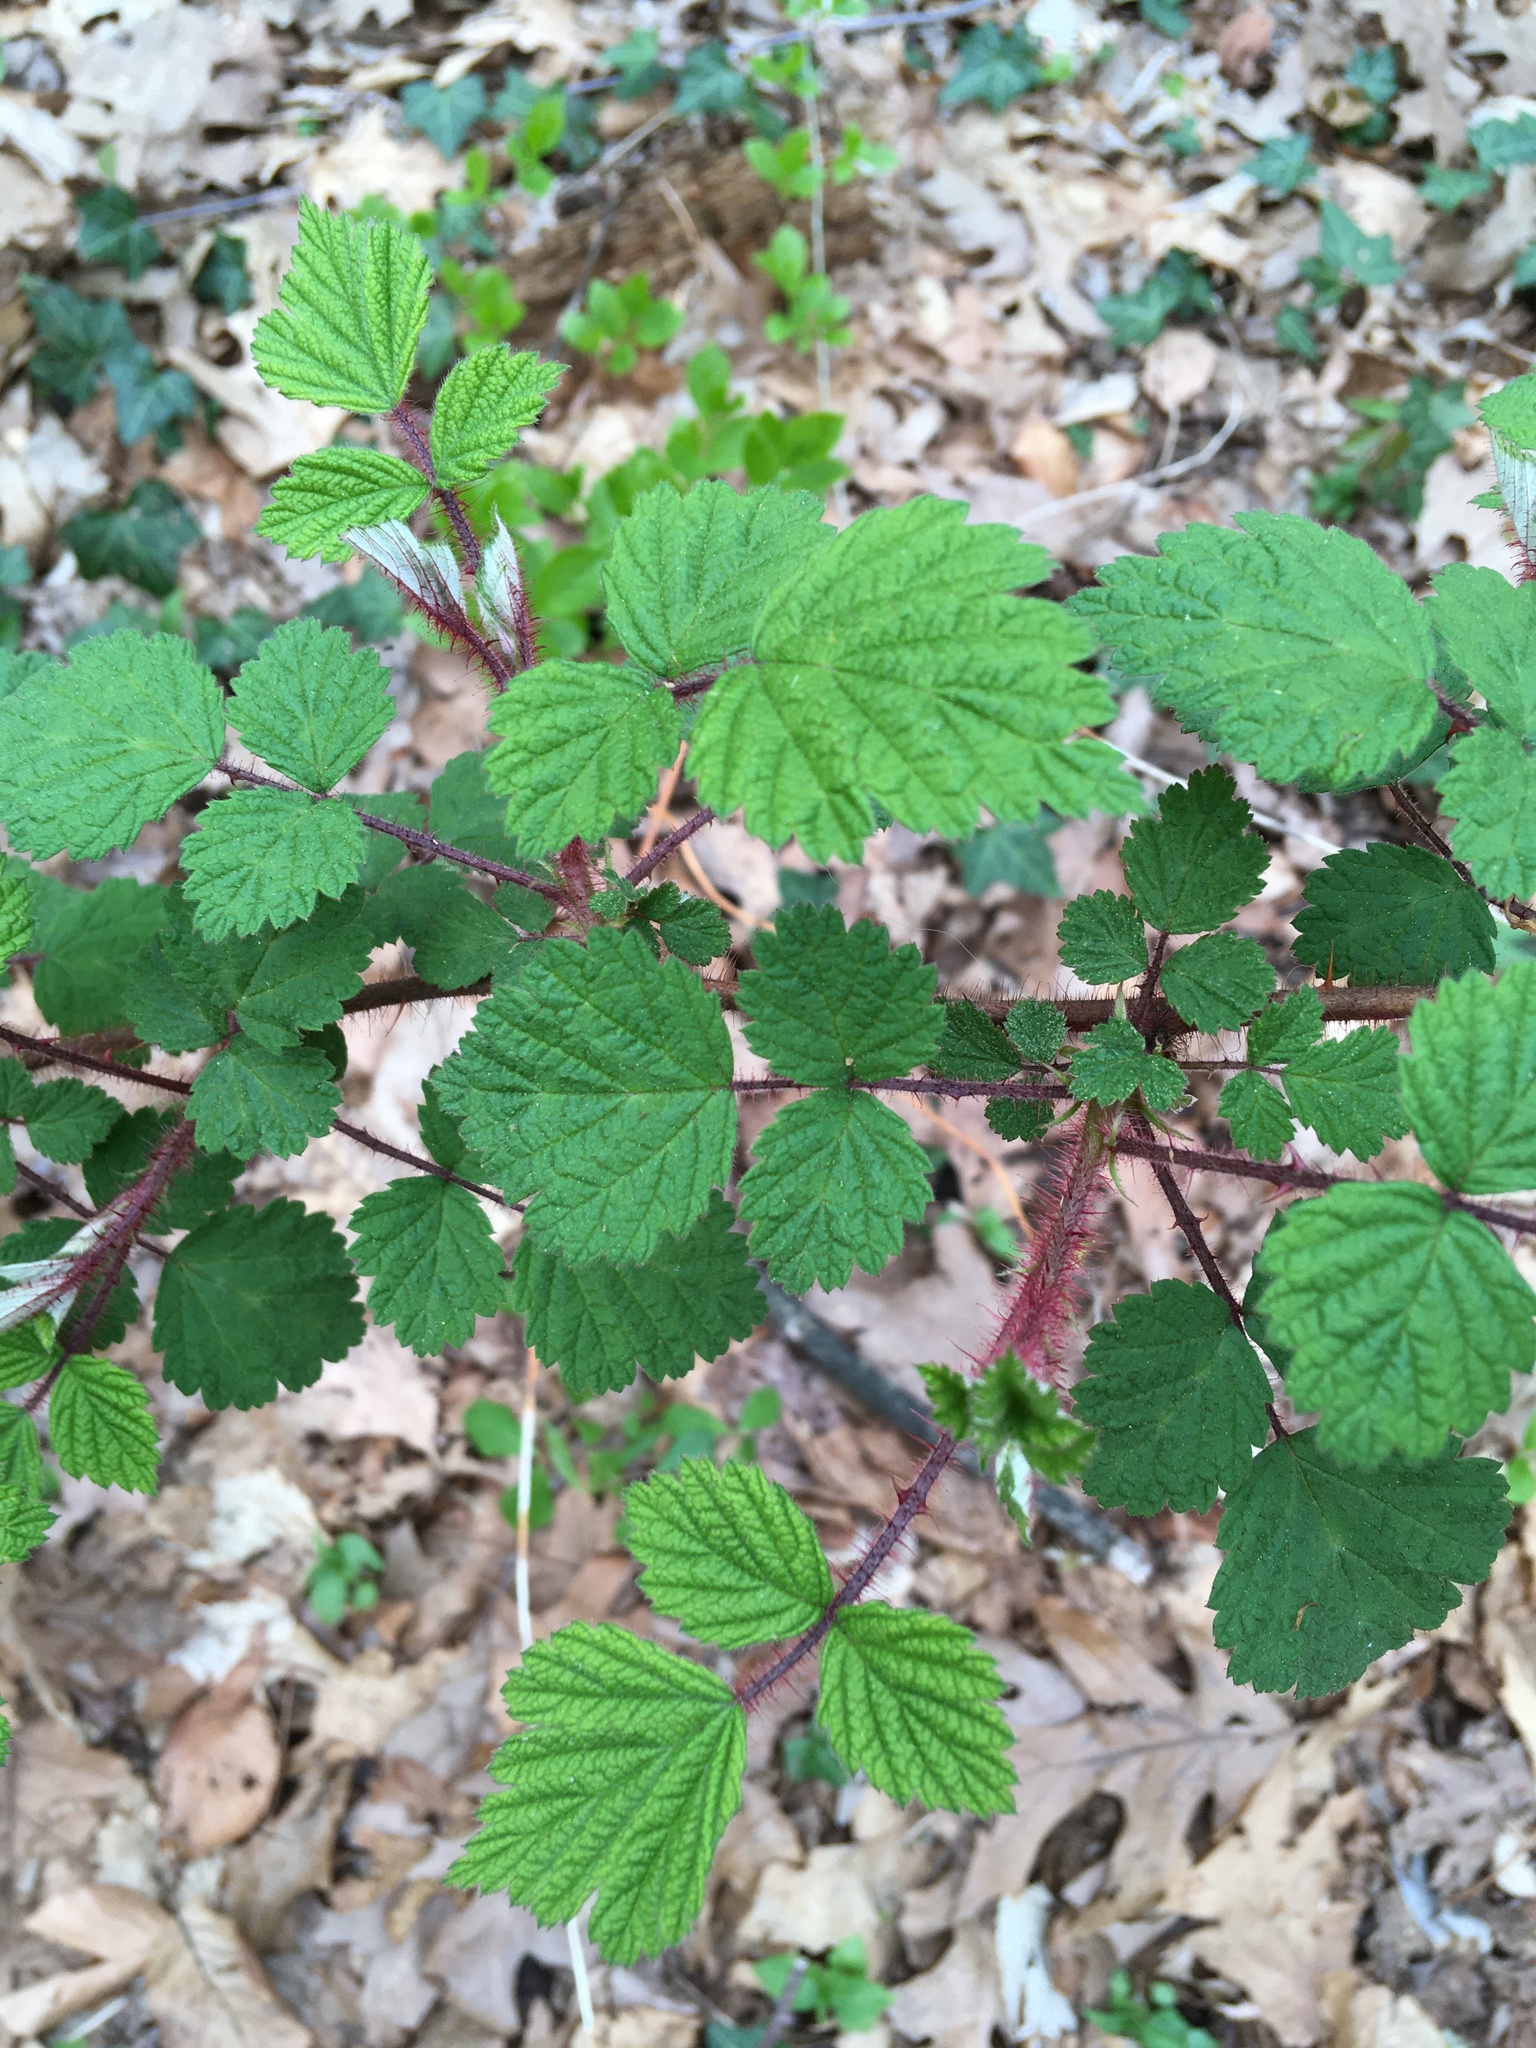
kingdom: Plantae
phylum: Tracheophyta
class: Magnoliopsida
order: Rosales
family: Rosaceae
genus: Rubus
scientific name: Rubus phoenicolasius
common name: Japanese wineberry
